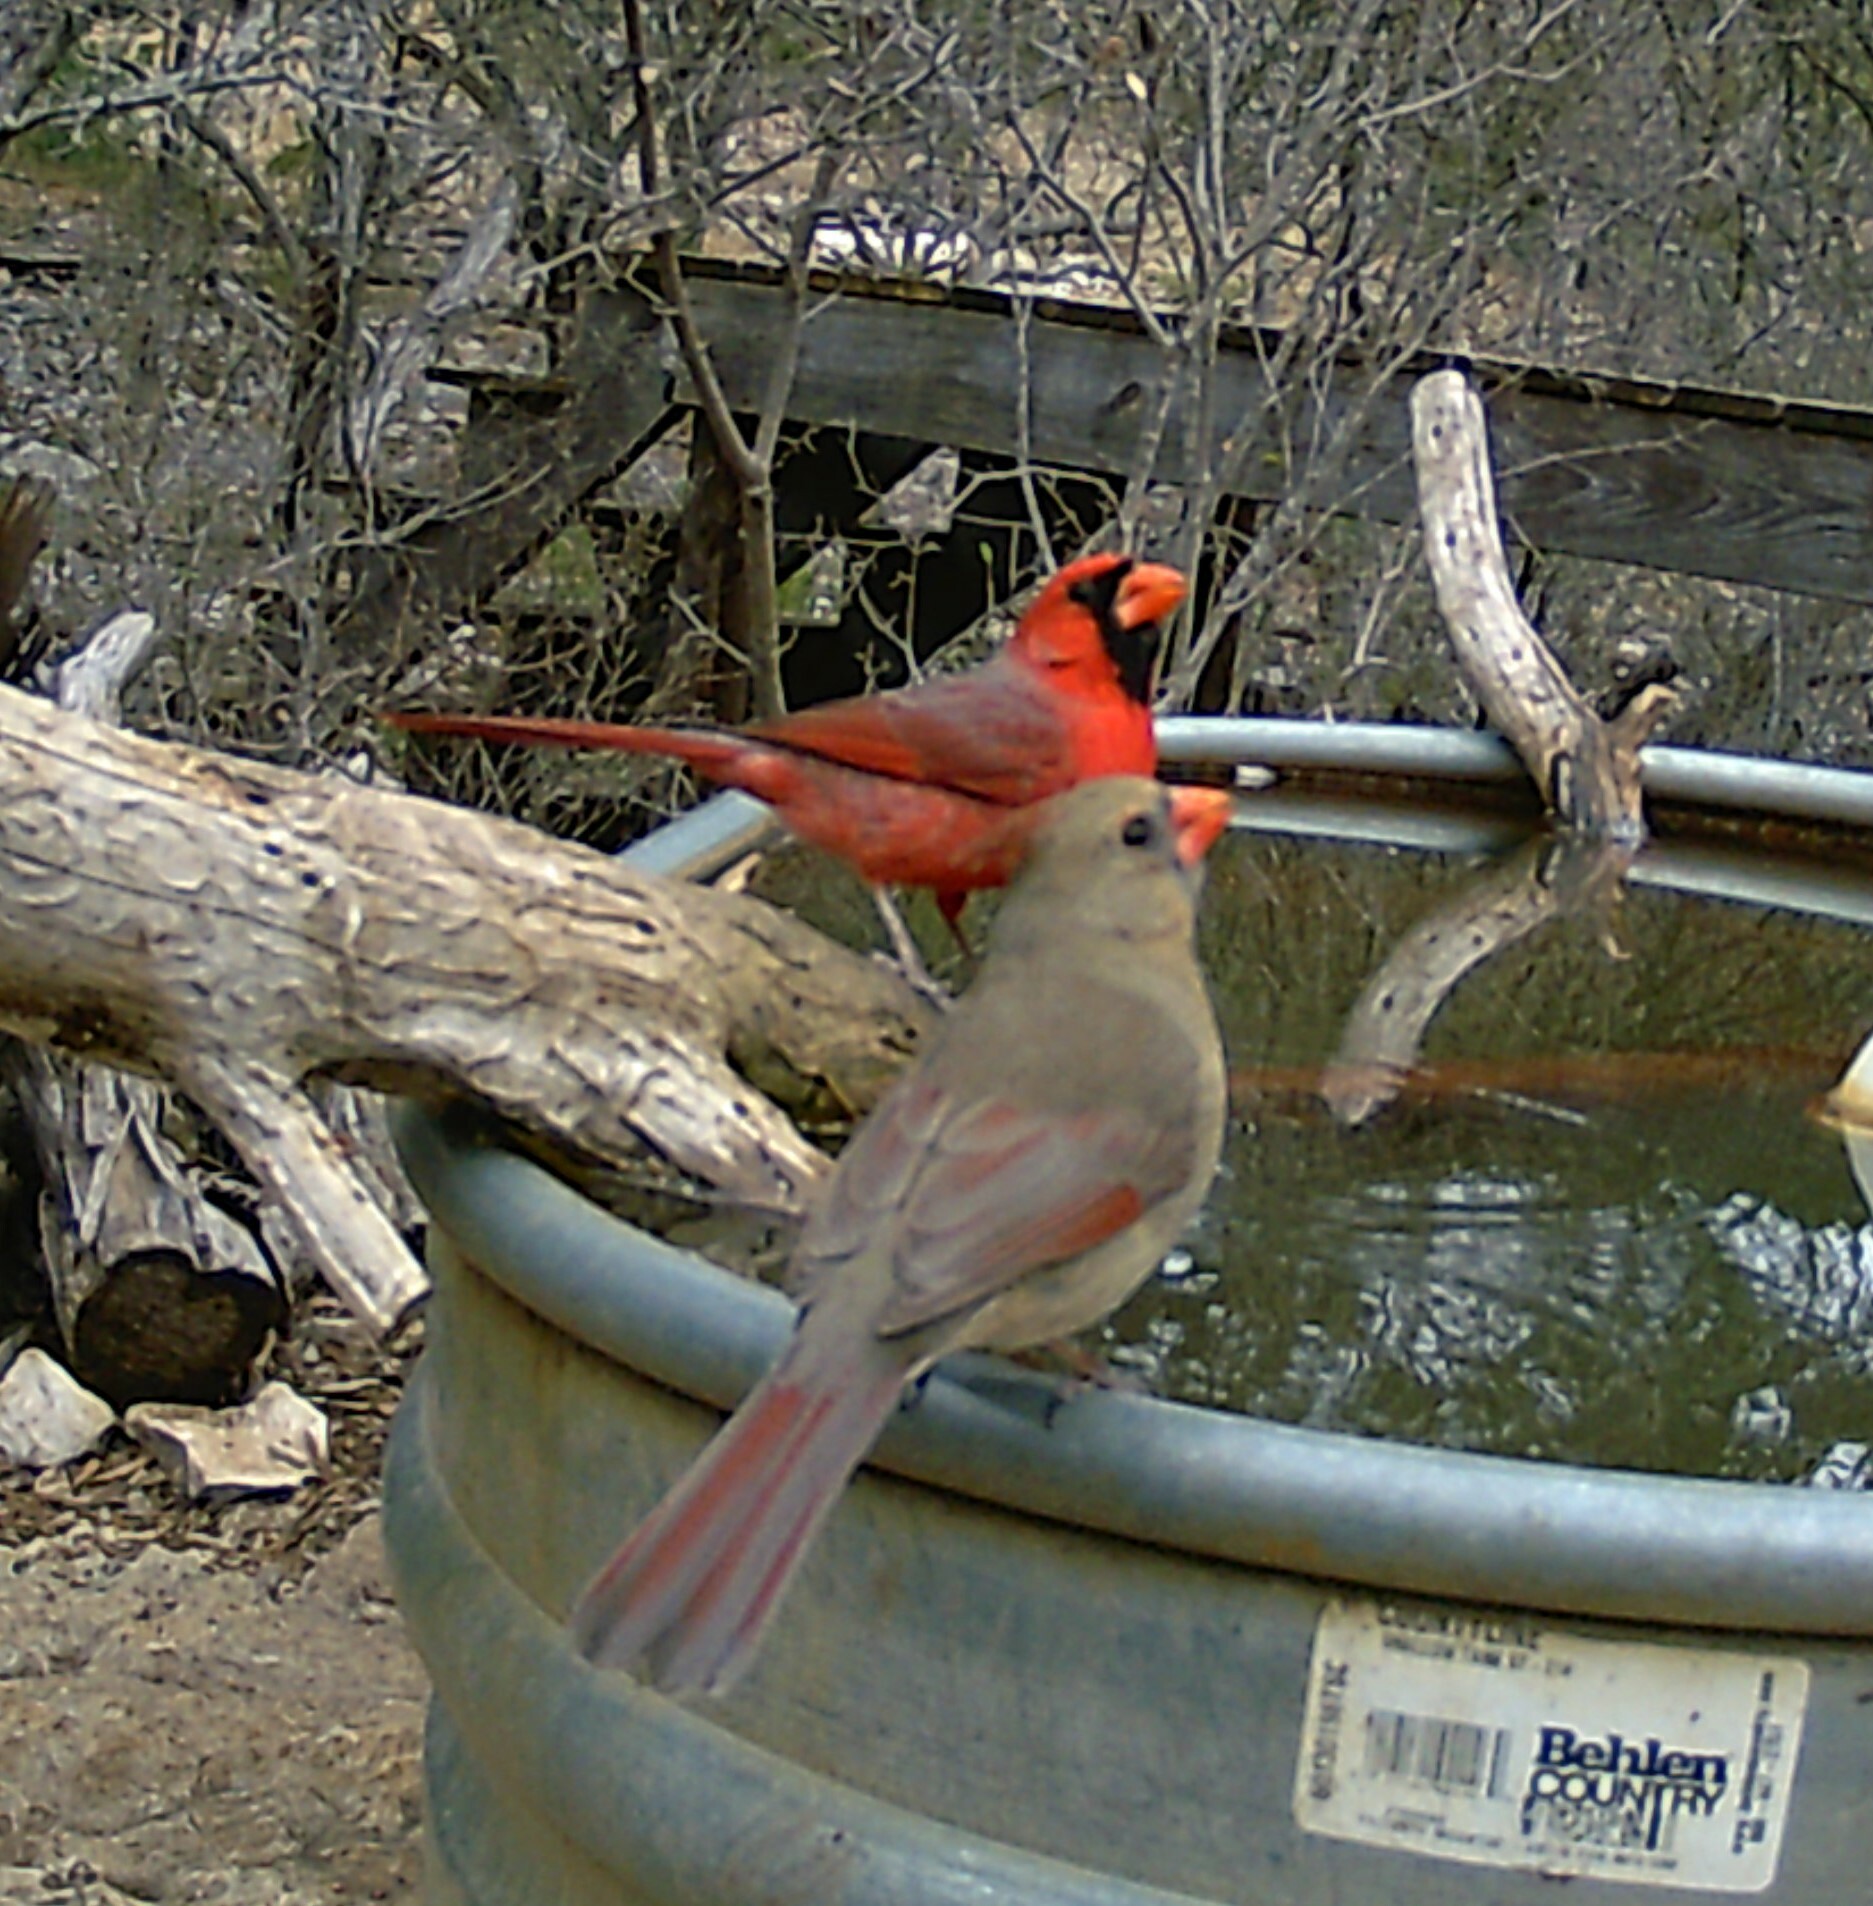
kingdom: Animalia
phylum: Chordata
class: Aves
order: Passeriformes
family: Cardinalidae
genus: Cardinalis
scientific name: Cardinalis cardinalis
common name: Northern cardinal
